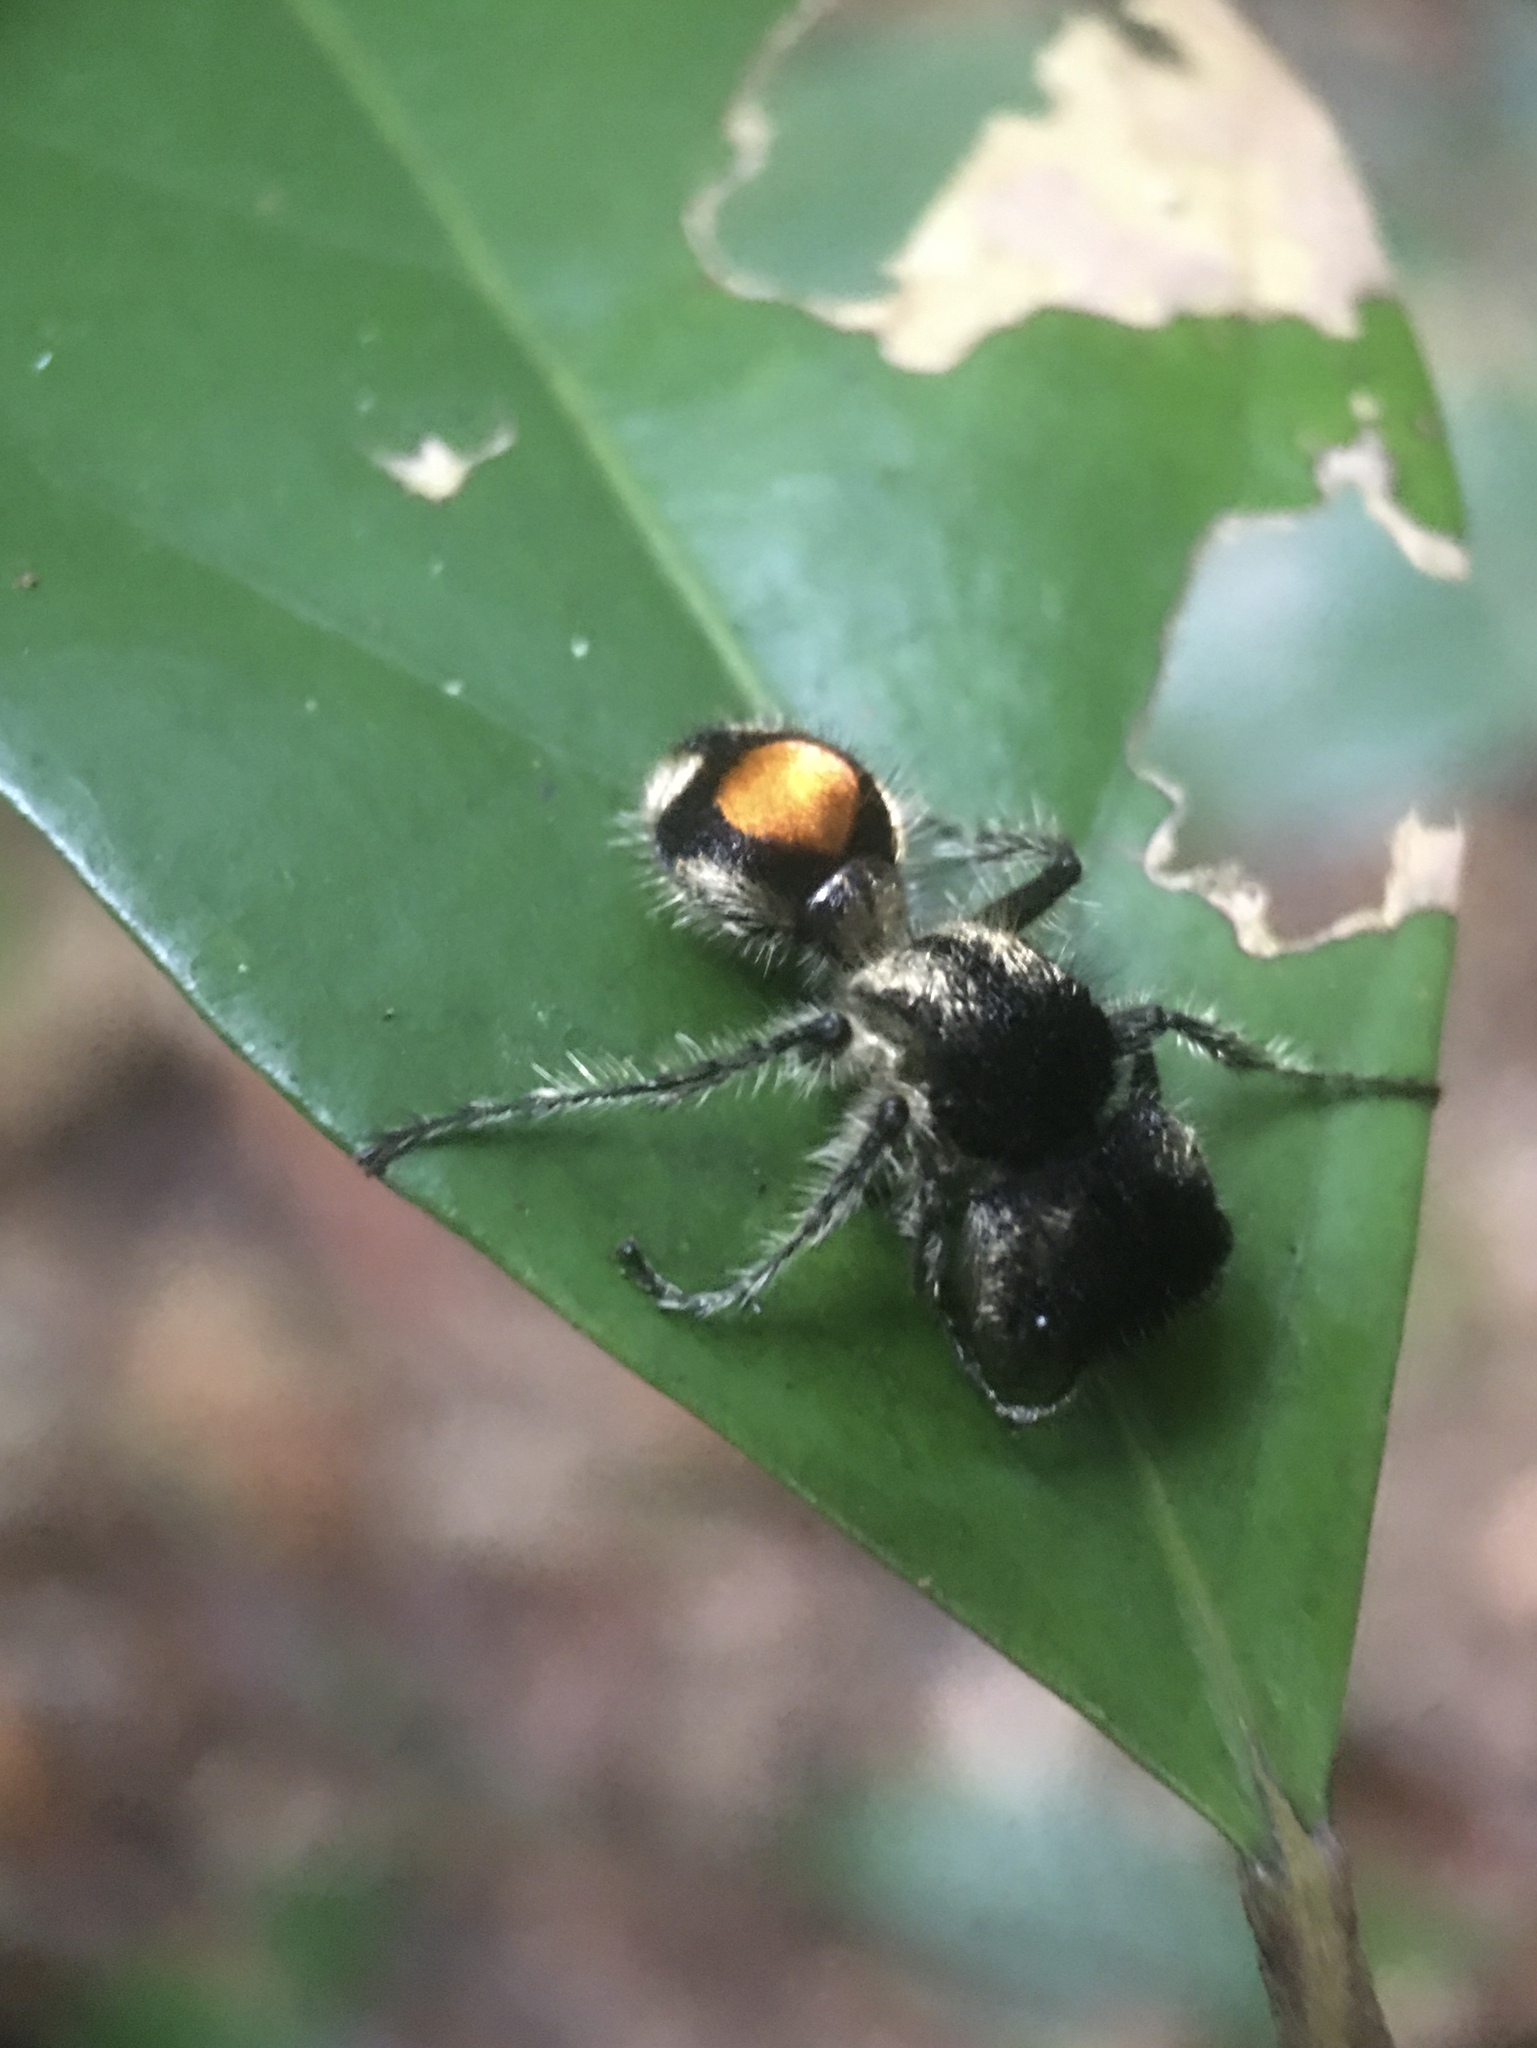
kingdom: Animalia
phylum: Arthropoda
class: Insecta
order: Hymenoptera
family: Mutillidae
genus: Hoplocrates
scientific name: Hoplocrates
